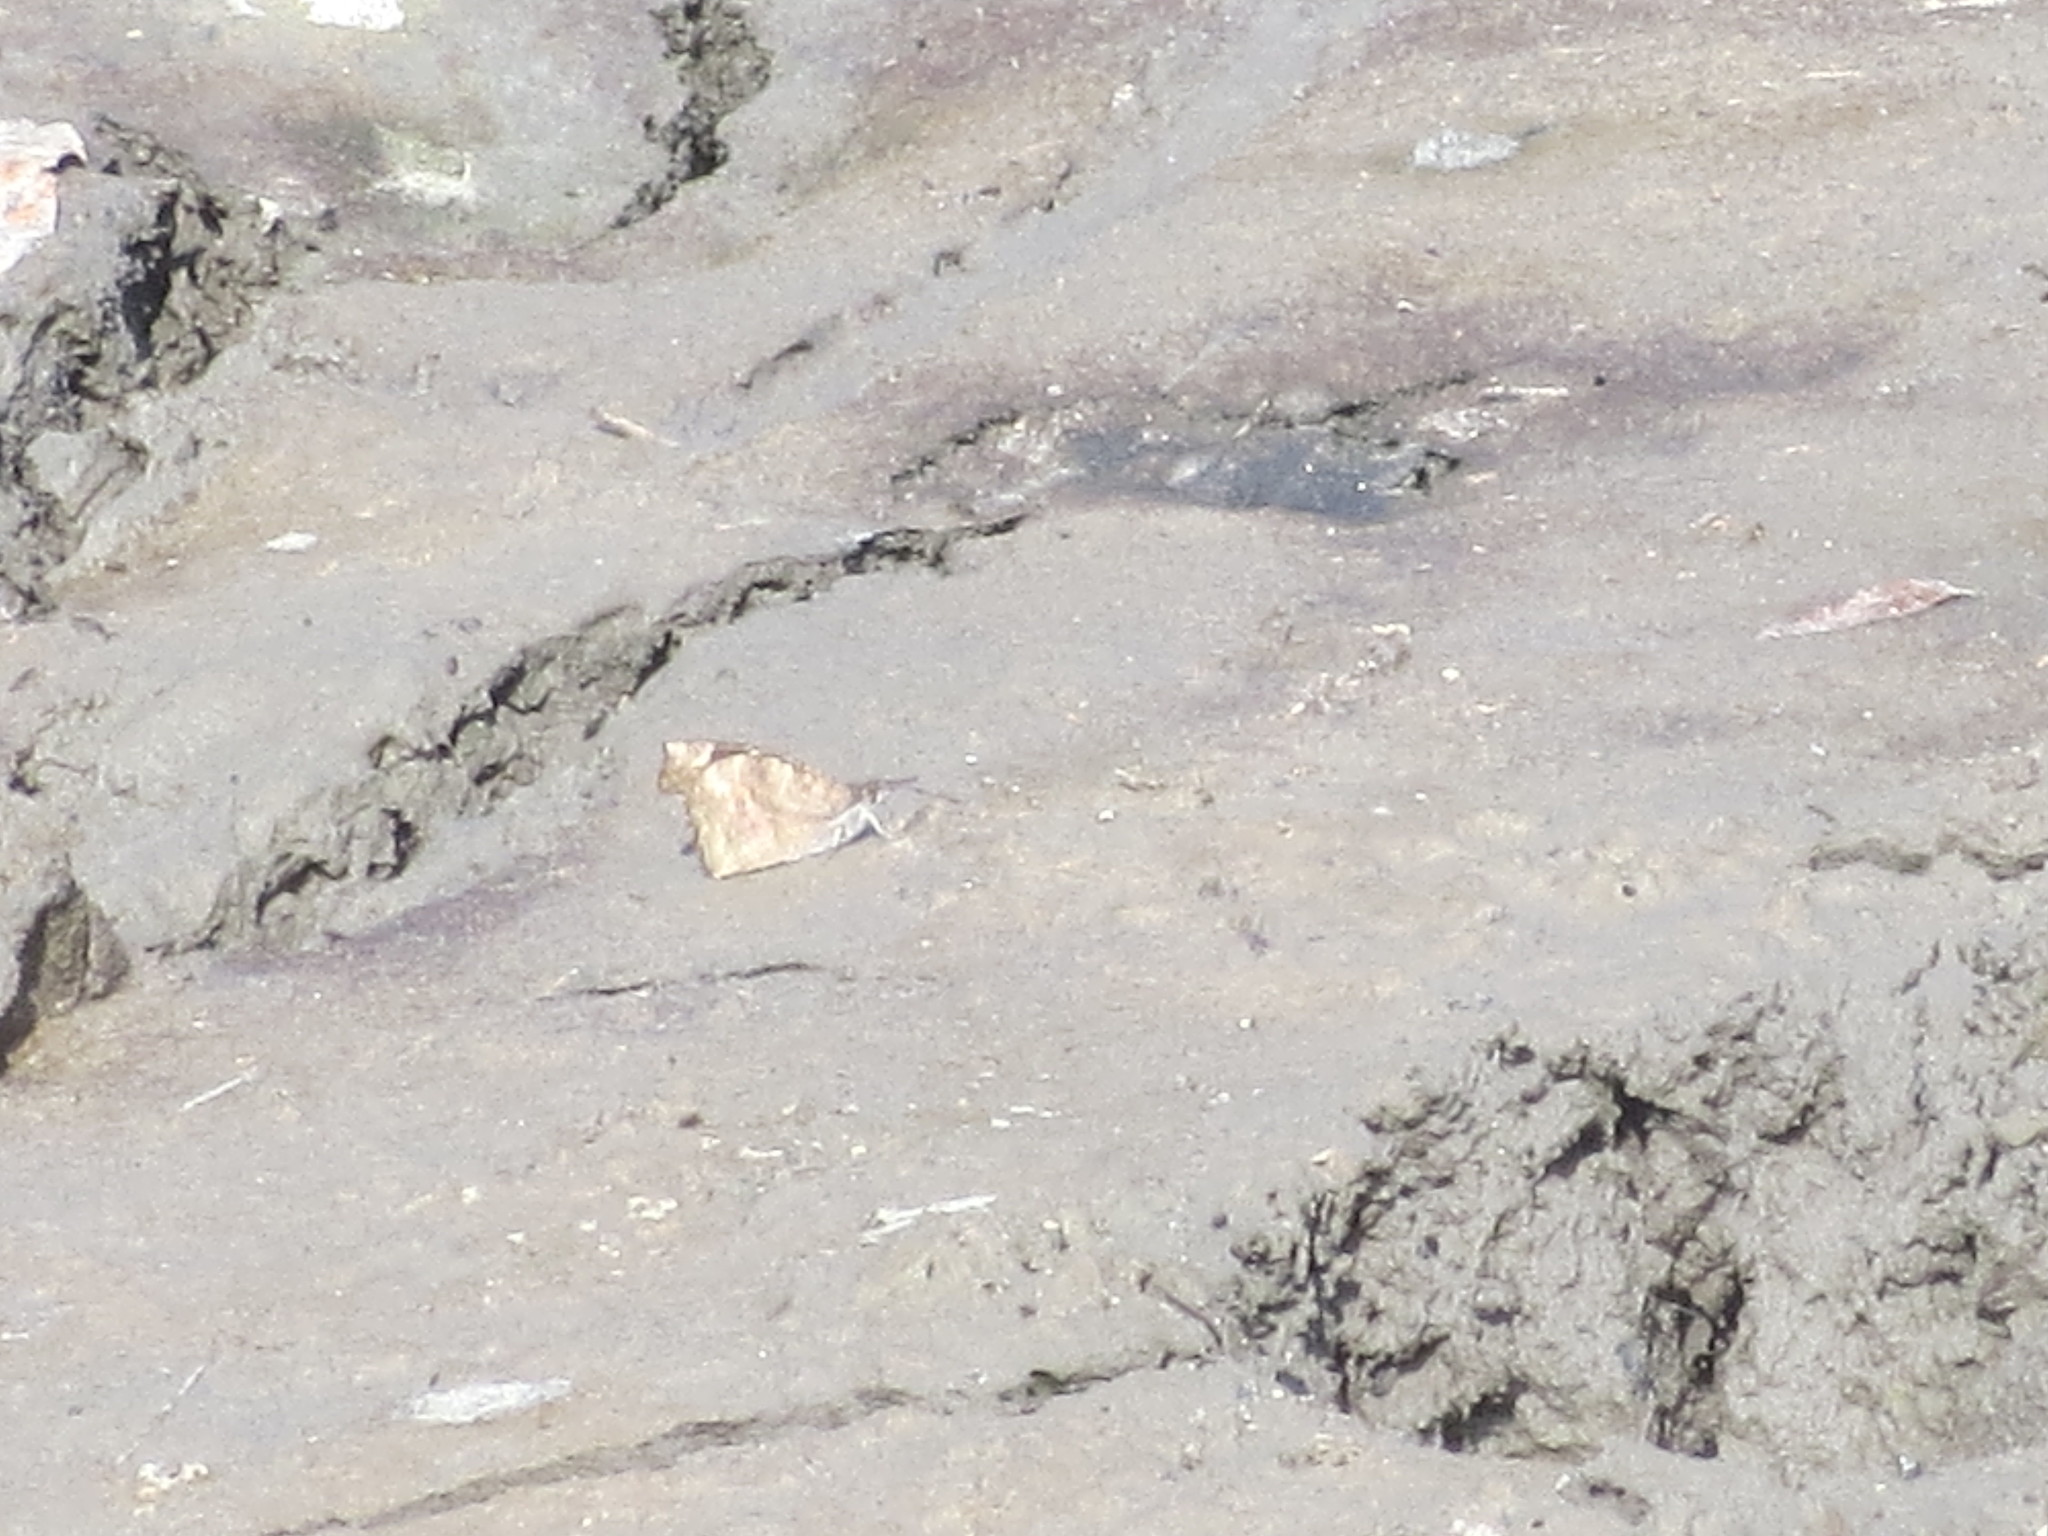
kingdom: Animalia
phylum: Arthropoda
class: Insecta
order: Lepidoptera
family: Nymphalidae
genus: Libytheana
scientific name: Libytheana carinenta
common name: American snout
